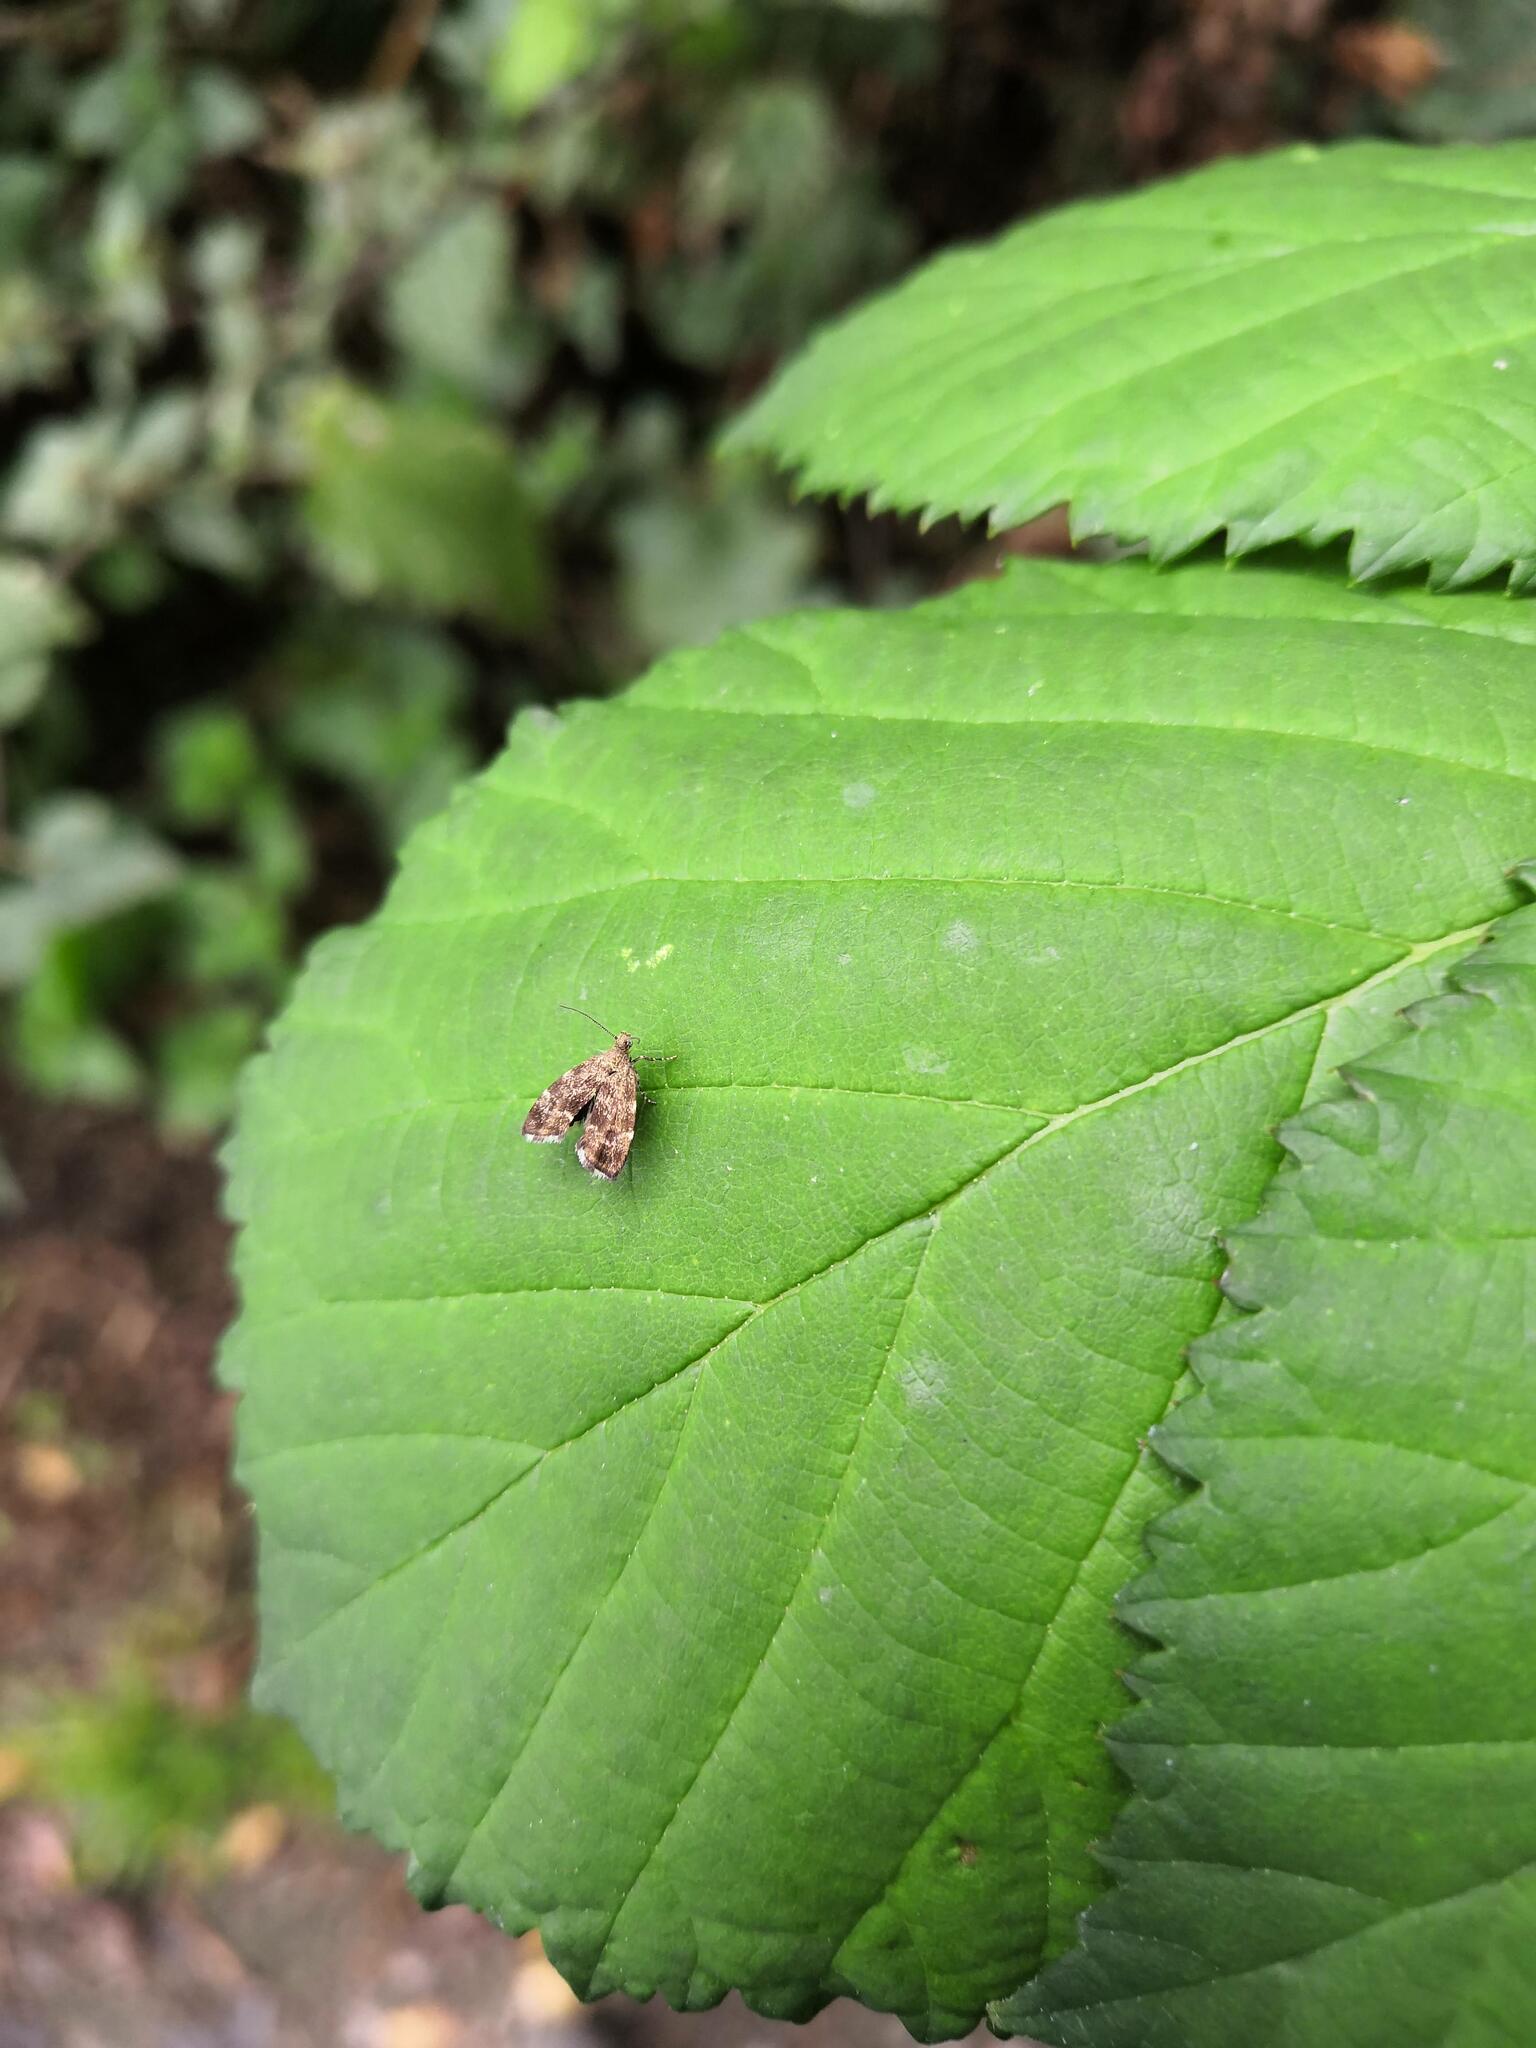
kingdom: Animalia
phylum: Arthropoda
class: Insecta
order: Lepidoptera
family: Choreutidae
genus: Anthophila
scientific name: Anthophila fabriciana
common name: Nettle-tap
